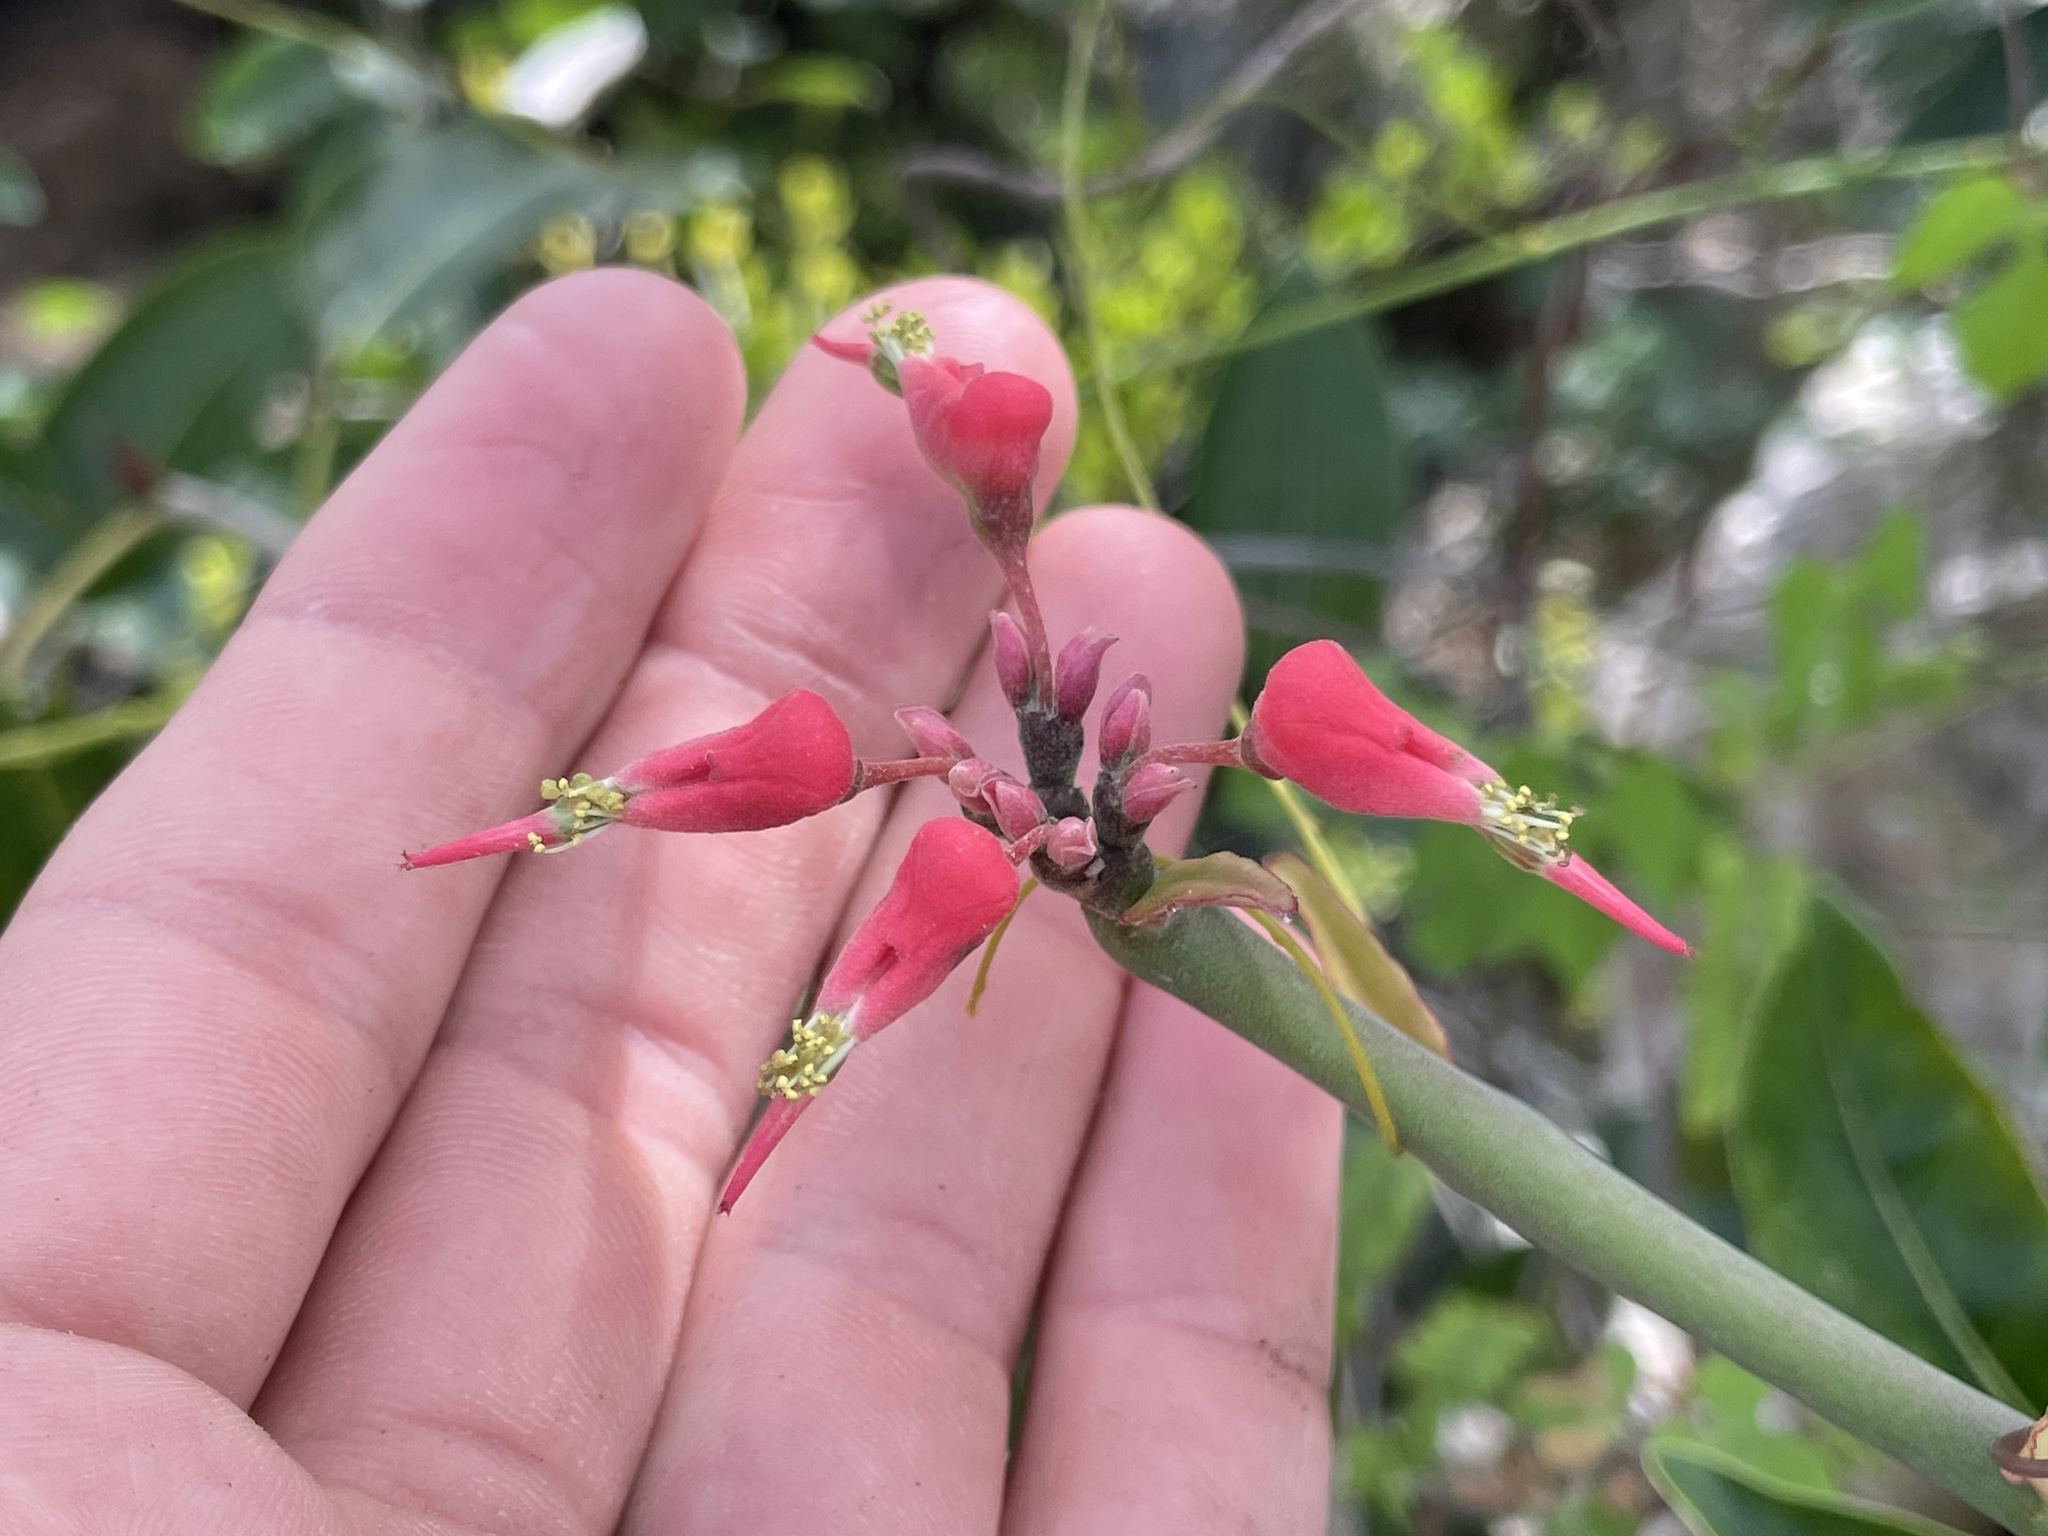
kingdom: Plantae
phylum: Tracheophyta
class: Magnoliopsida
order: Malpighiales
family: Euphorbiaceae
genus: Euphorbia
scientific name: Euphorbia tithymaloides
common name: Slipperplant
